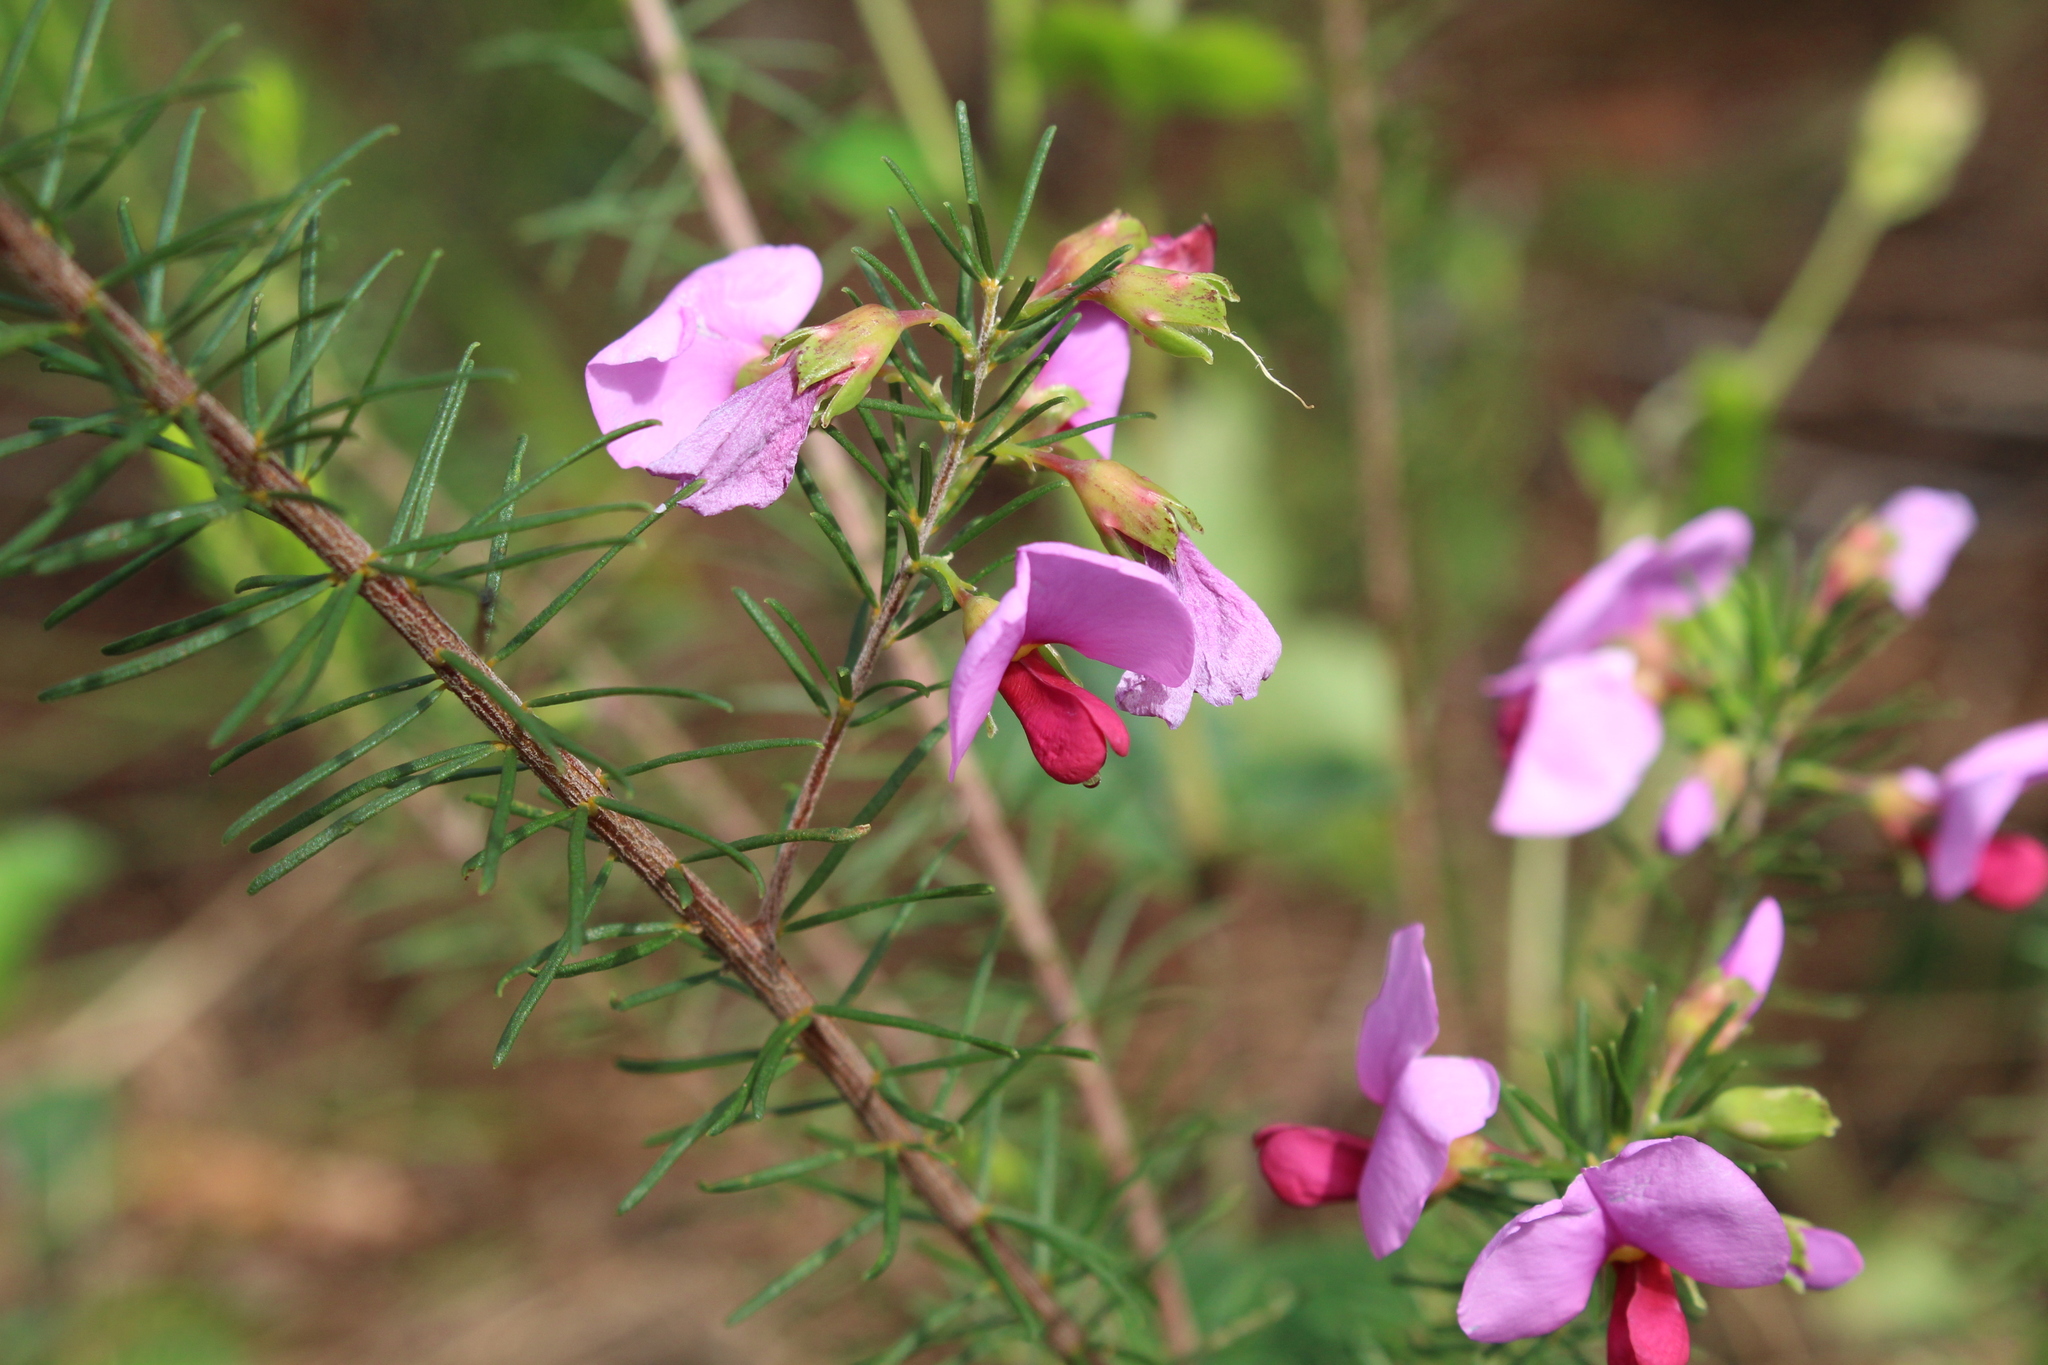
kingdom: Plantae
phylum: Tracheophyta
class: Magnoliopsida
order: Fabales
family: Fabaceae
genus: Gompholobium
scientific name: Gompholobium scabrum
